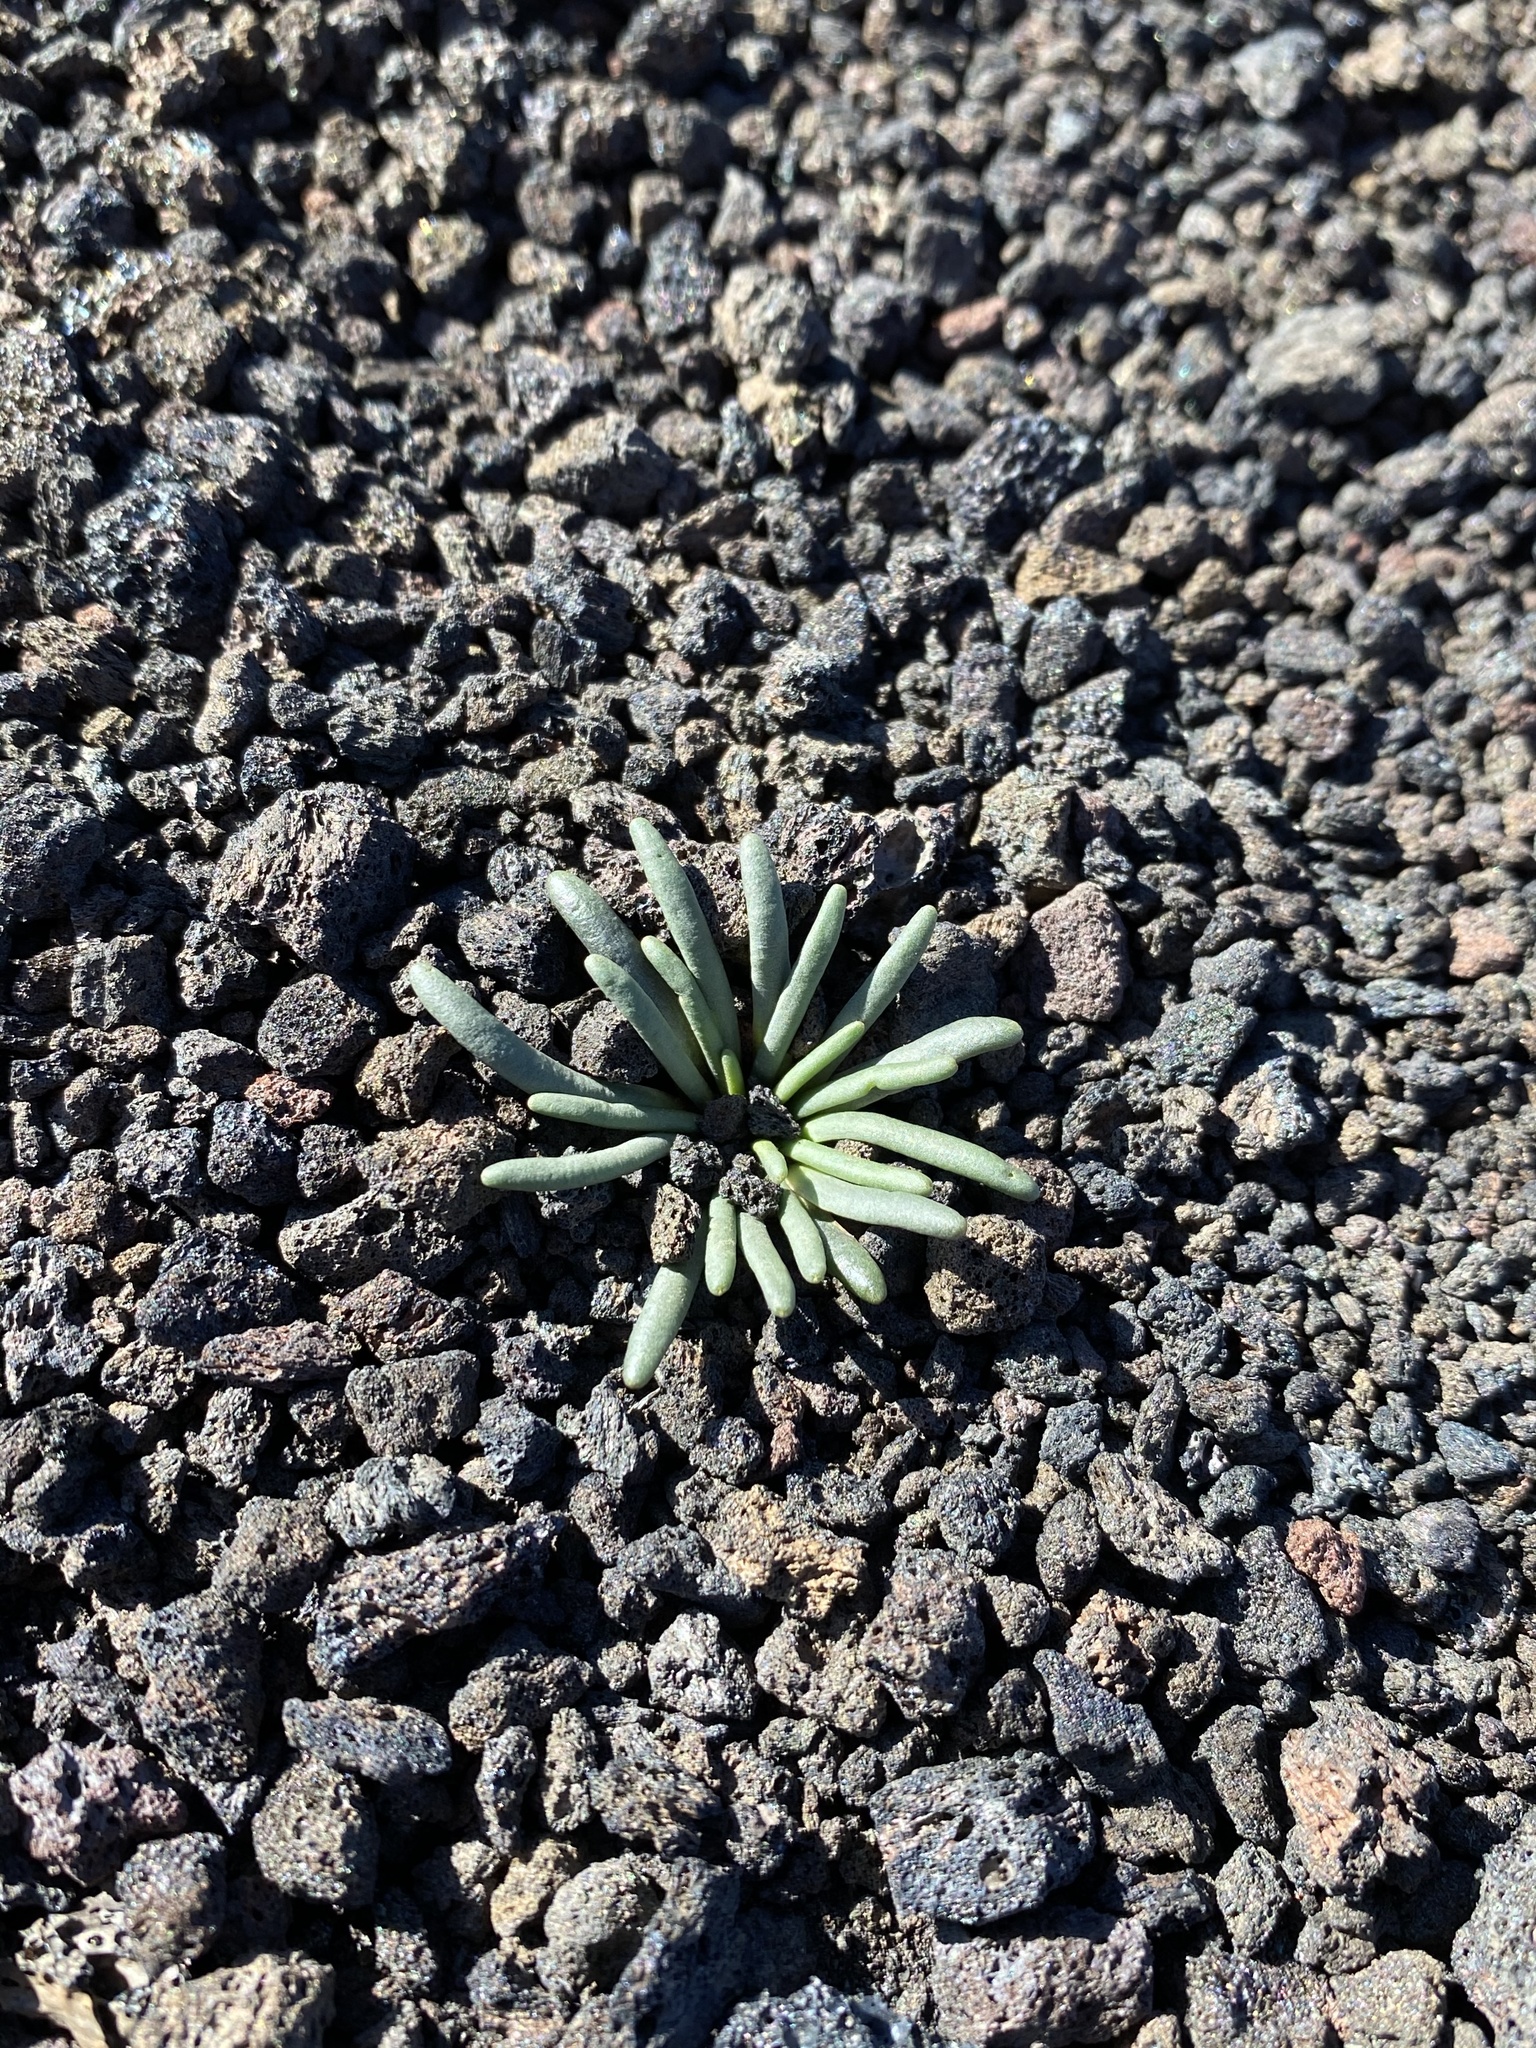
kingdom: Plantae
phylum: Tracheophyta
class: Magnoliopsida
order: Caryophyllales
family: Montiaceae
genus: Lewisia
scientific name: Lewisia rediviva
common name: Bitter-root
